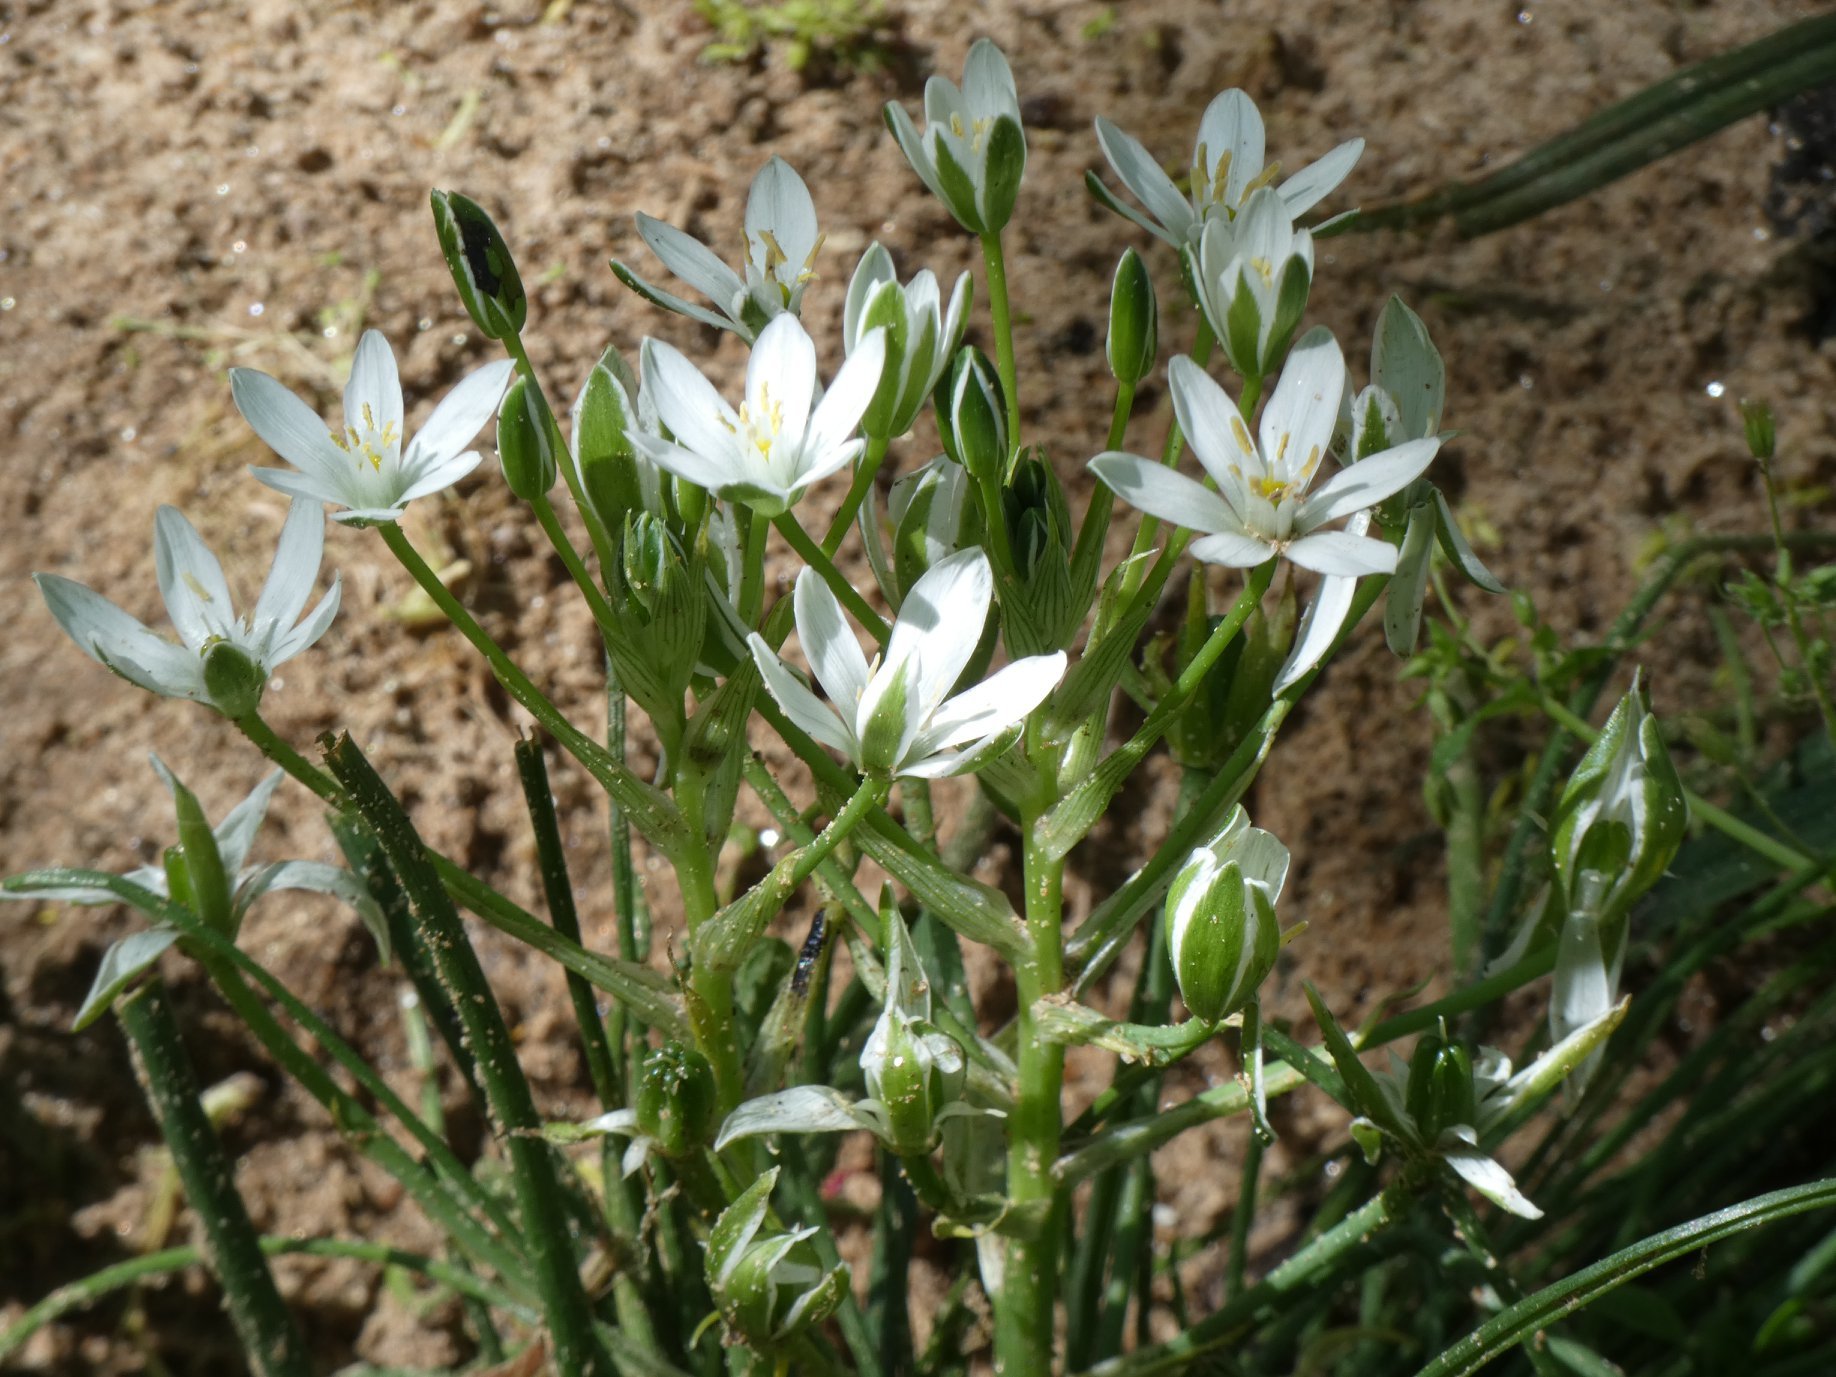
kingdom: Plantae
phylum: Tracheophyta
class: Liliopsida
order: Asparagales
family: Asparagaceae
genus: Ornithogalum
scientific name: Ornithogalum umbellatum
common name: Garden star-of-bethlehem
